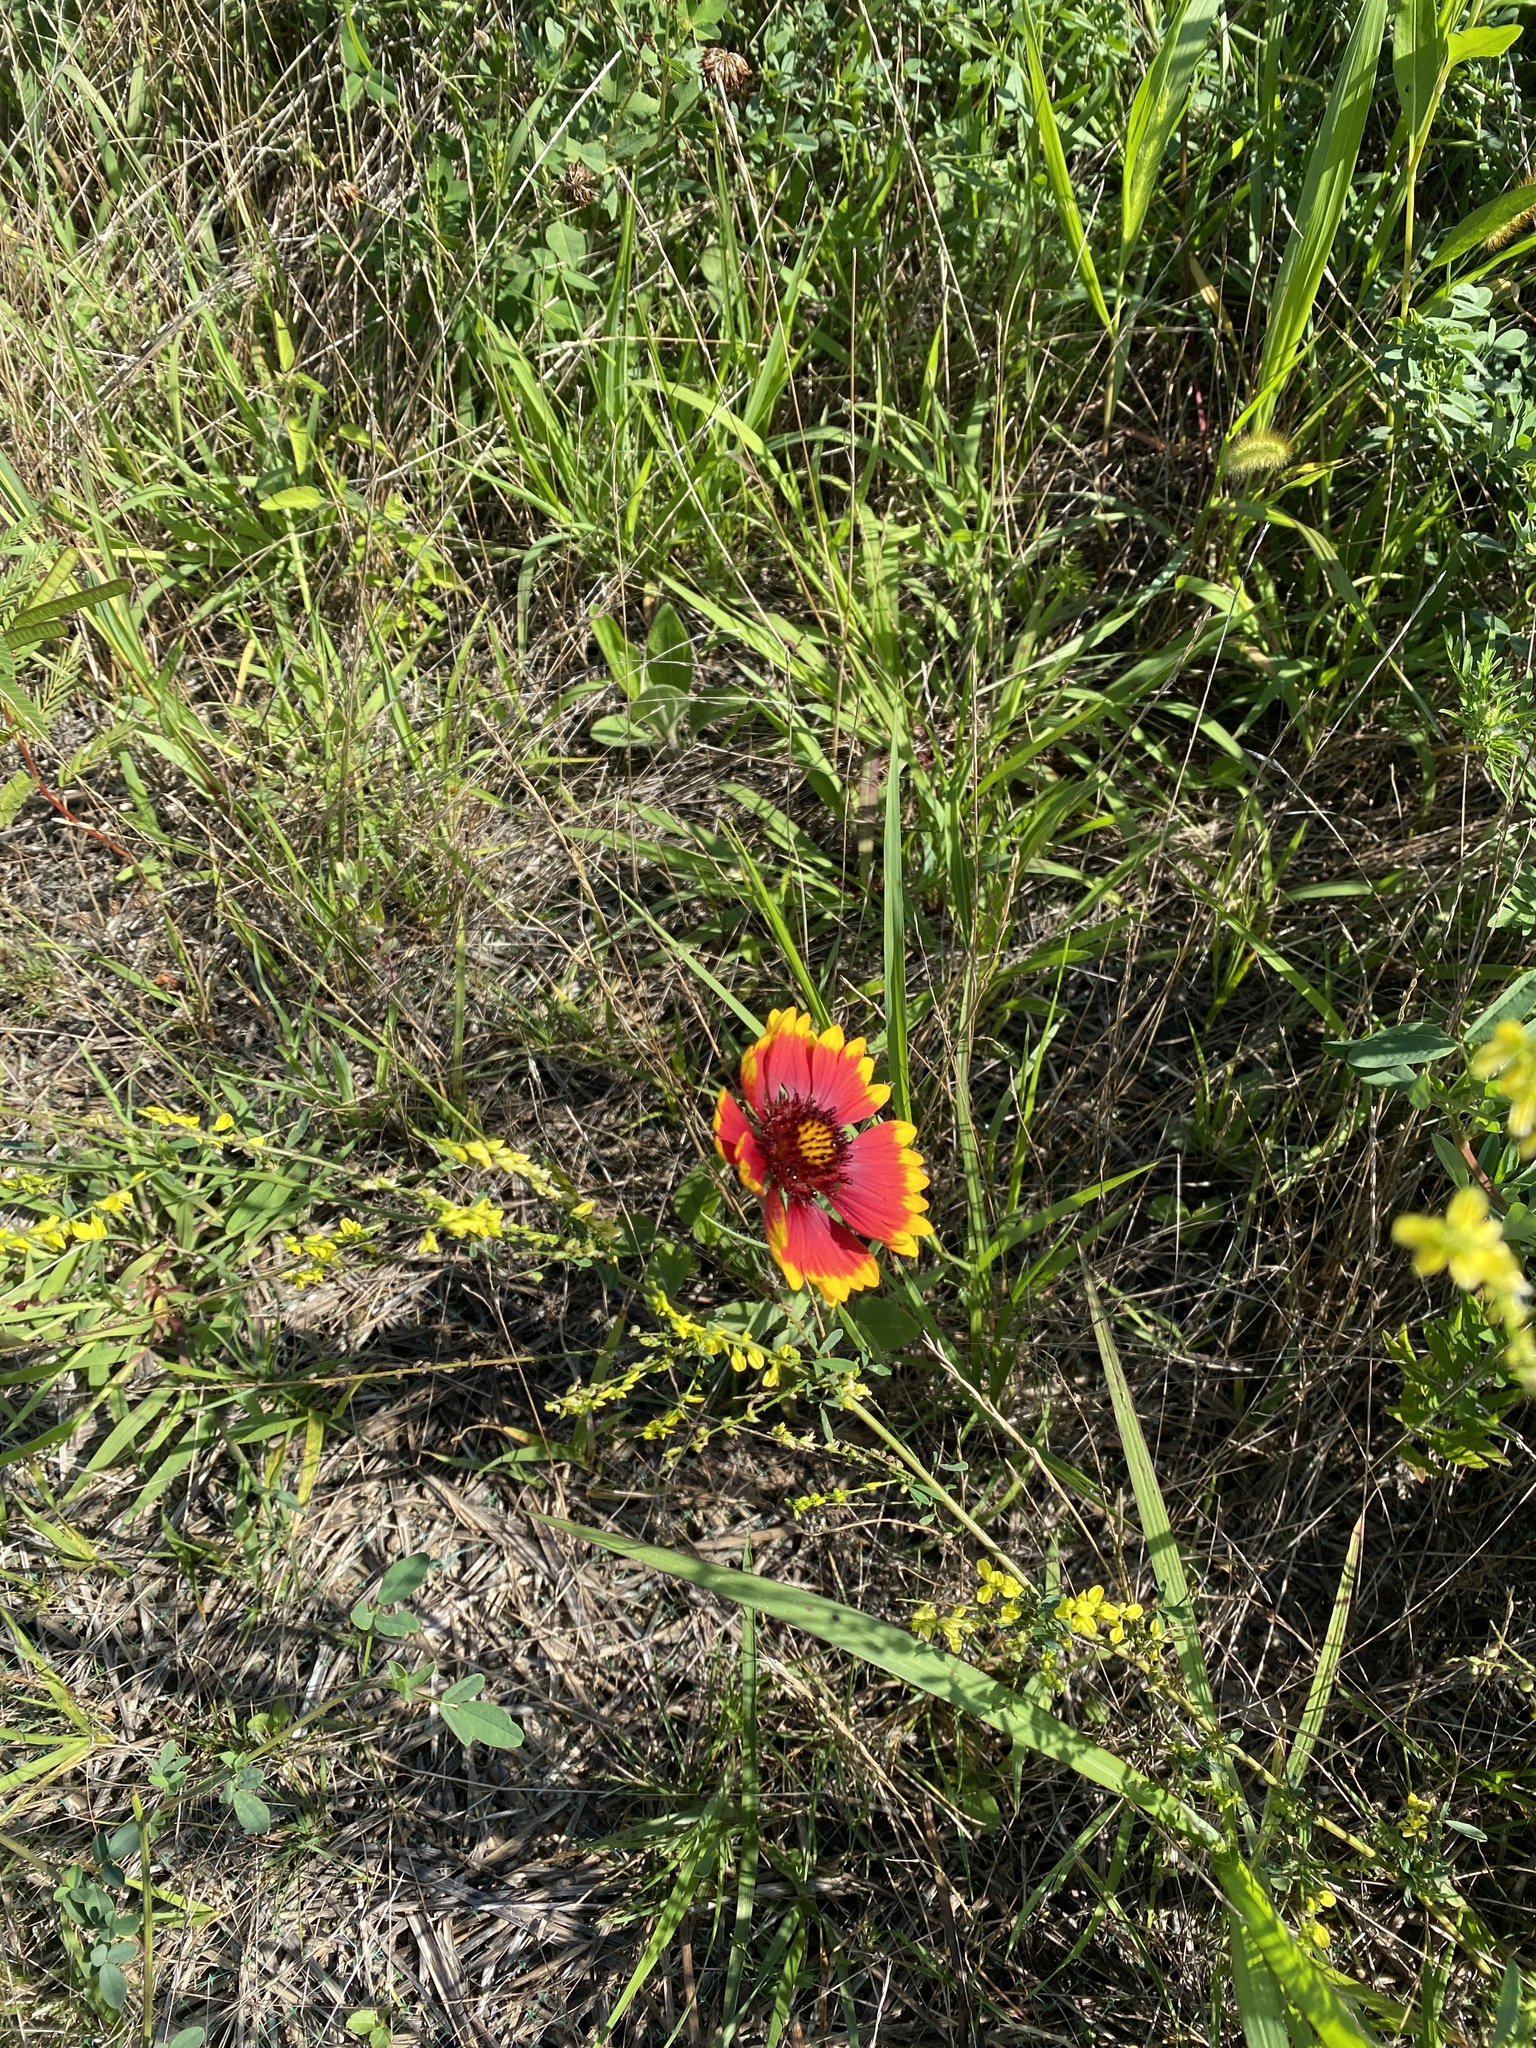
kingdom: Plantae
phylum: Tracheophyta
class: Magnoliopsida
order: Asterales
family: Asteraceae
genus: Gaillardia
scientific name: Gaillardia pulchella
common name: Firewheel
